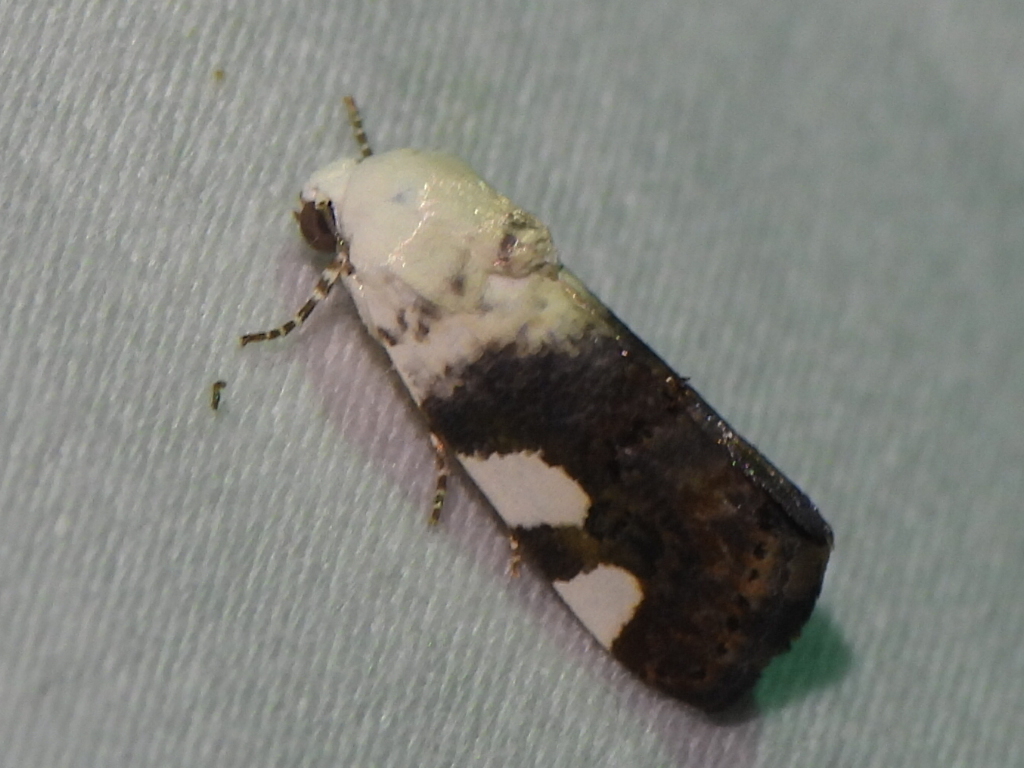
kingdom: Animalia
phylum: Arthropoda
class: Insecta
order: Lepidoptera
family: Noctuidae
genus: Acontia
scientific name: Acontia quadriplaga
